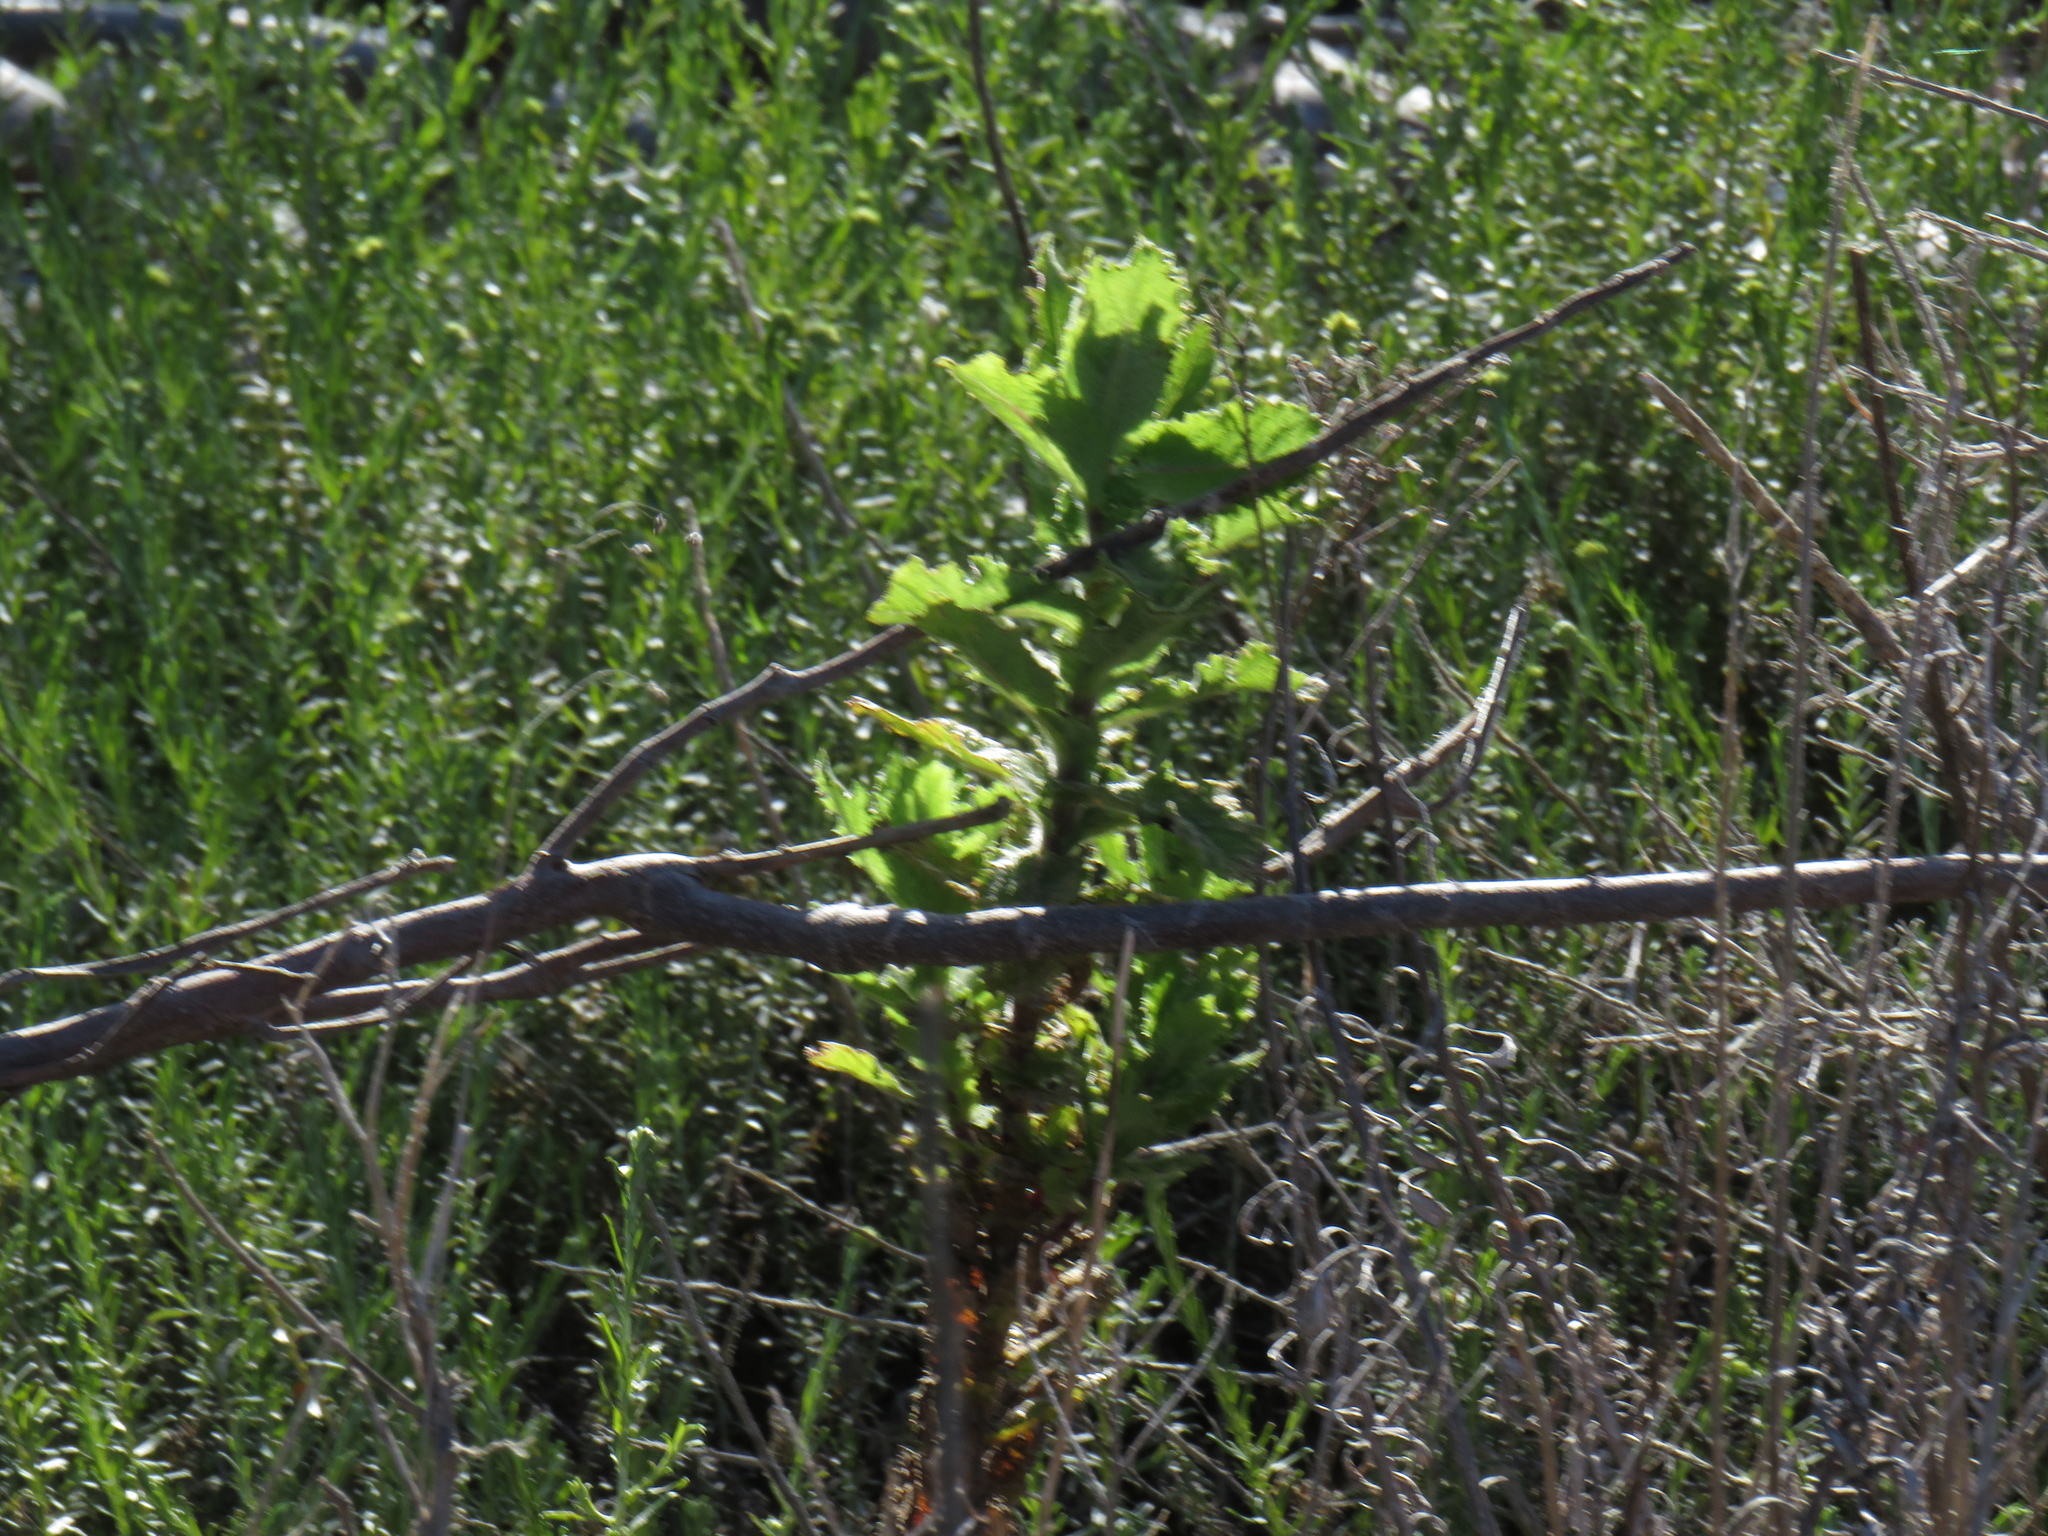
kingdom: Plantae
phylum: Tracheophyta
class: Magnoliopsida
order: Asterales
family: Asteraceae
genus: Senecio
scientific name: Senecio rigidus
